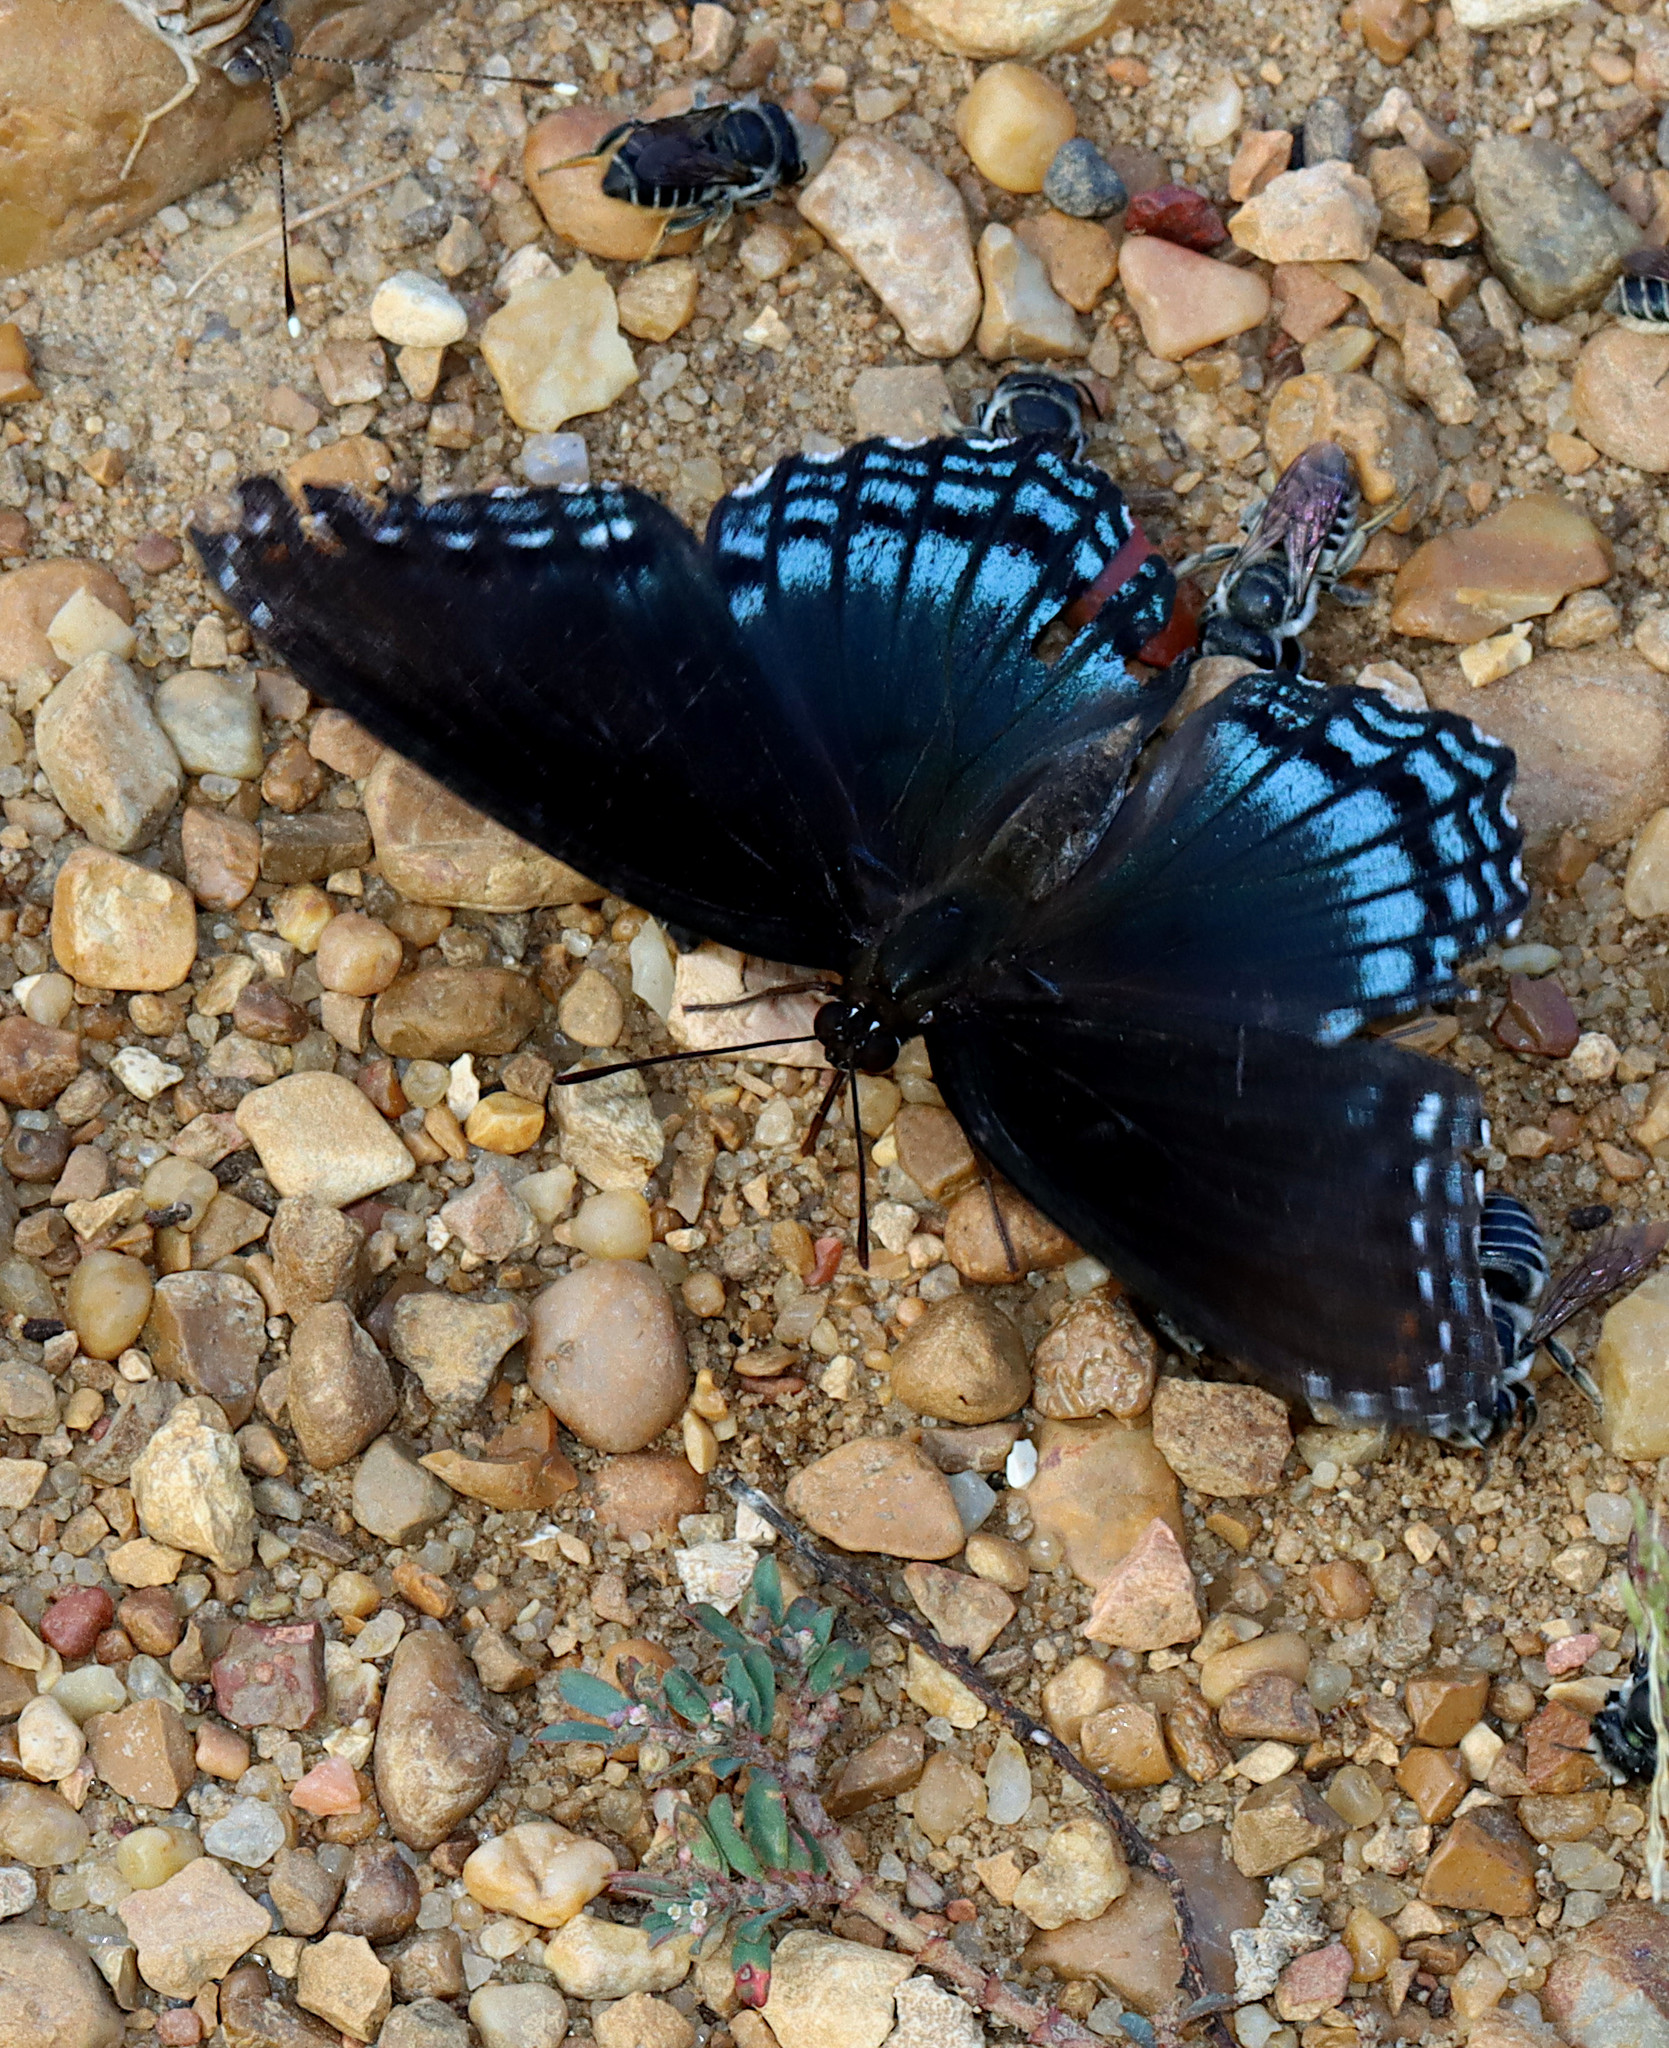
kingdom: Animalia
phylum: Arthropoda
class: Insecta
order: Lepidoptera
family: Nymphalidae
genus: Limenitis
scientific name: Limenitis astyanax
